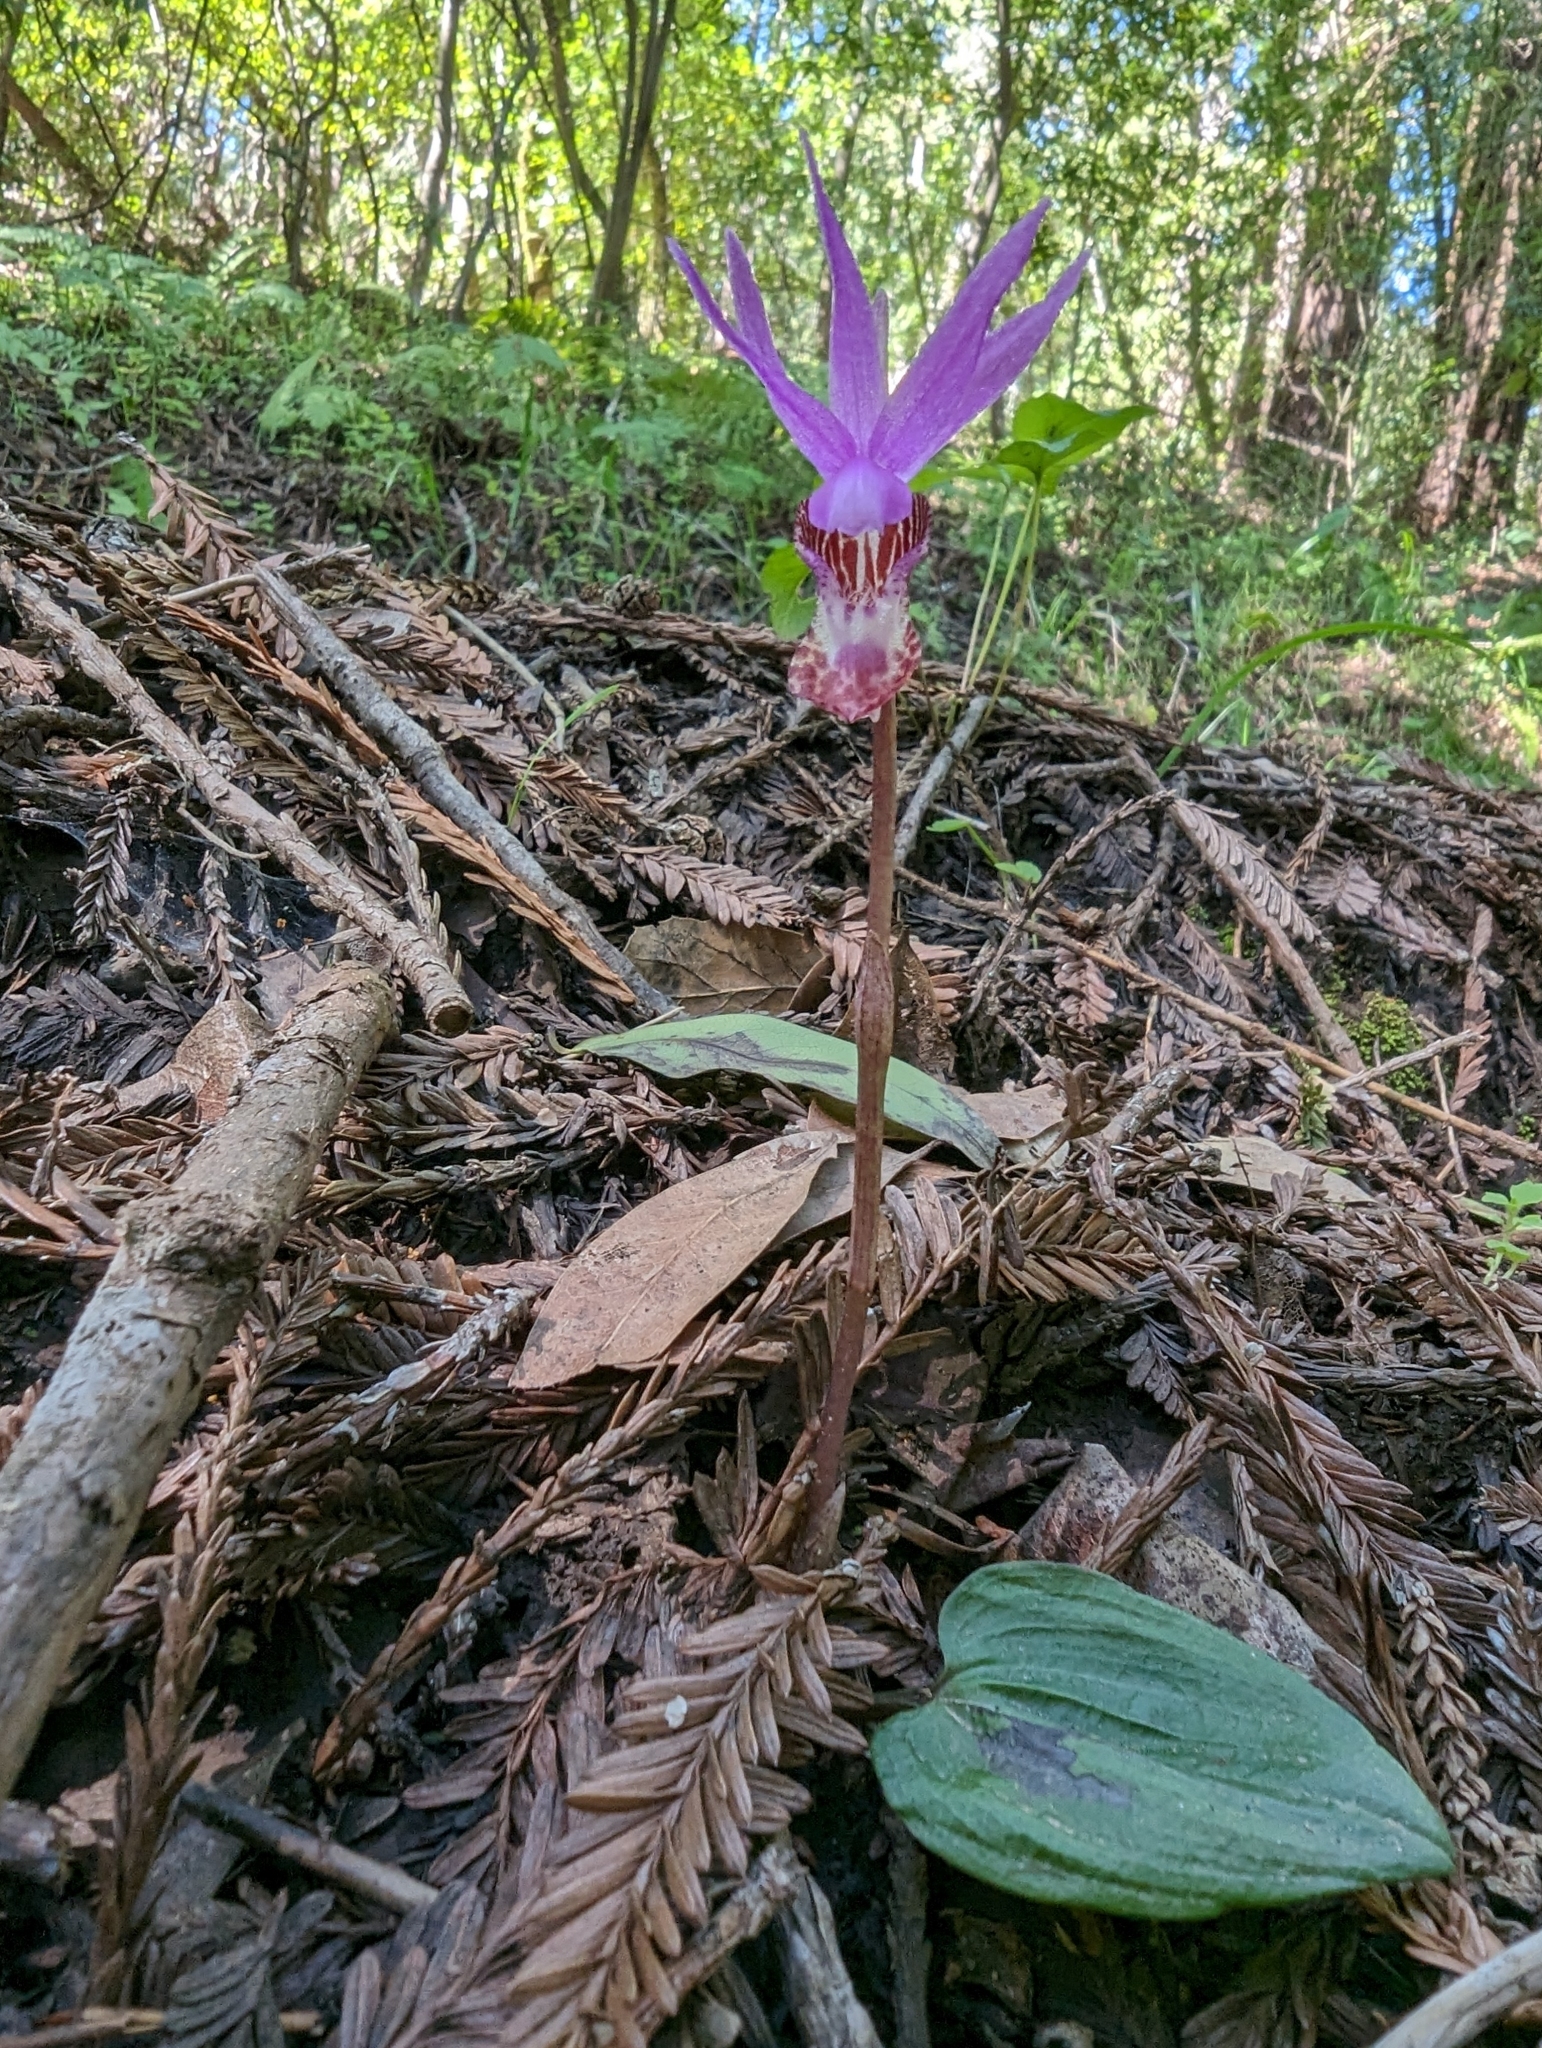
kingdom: Plantae
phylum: Tracheophyta
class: Liliopsida
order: Asparagales
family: Orchidaceae
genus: Calypso
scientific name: Calypso bulbosa
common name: Calypso
